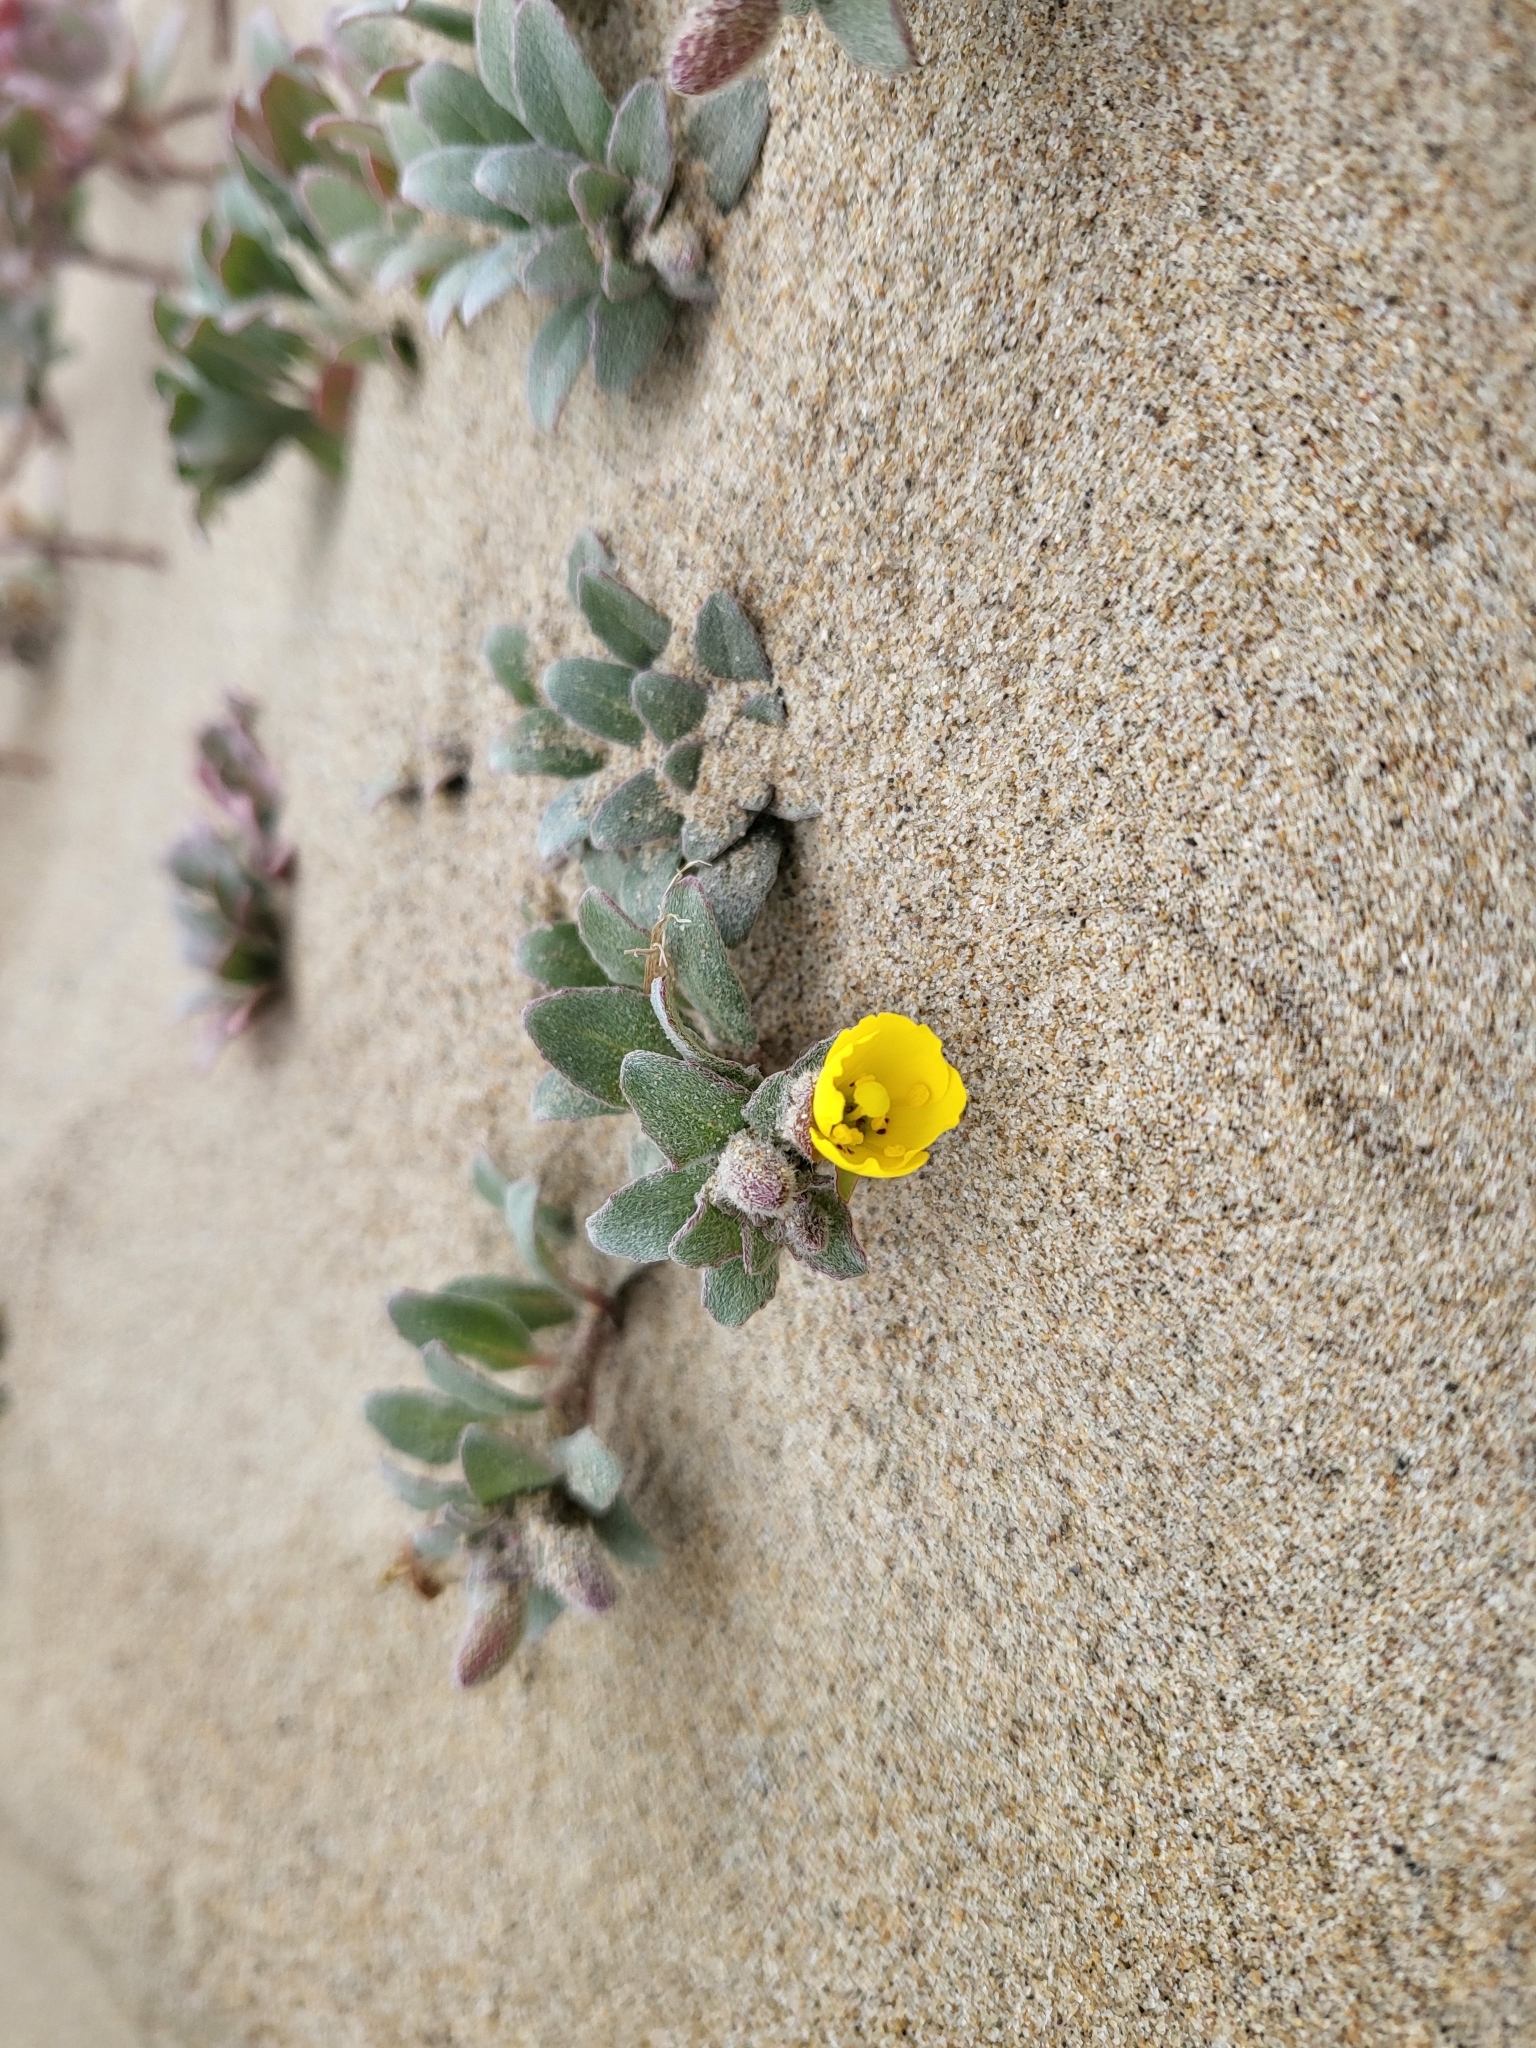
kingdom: Plantae
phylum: Tracheophyta
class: Magnoliopsida
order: Myrtales
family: Onagraceae
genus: Camissoniopsis
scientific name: Camissoniopsis cheiranthifolia
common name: Beach suncup
